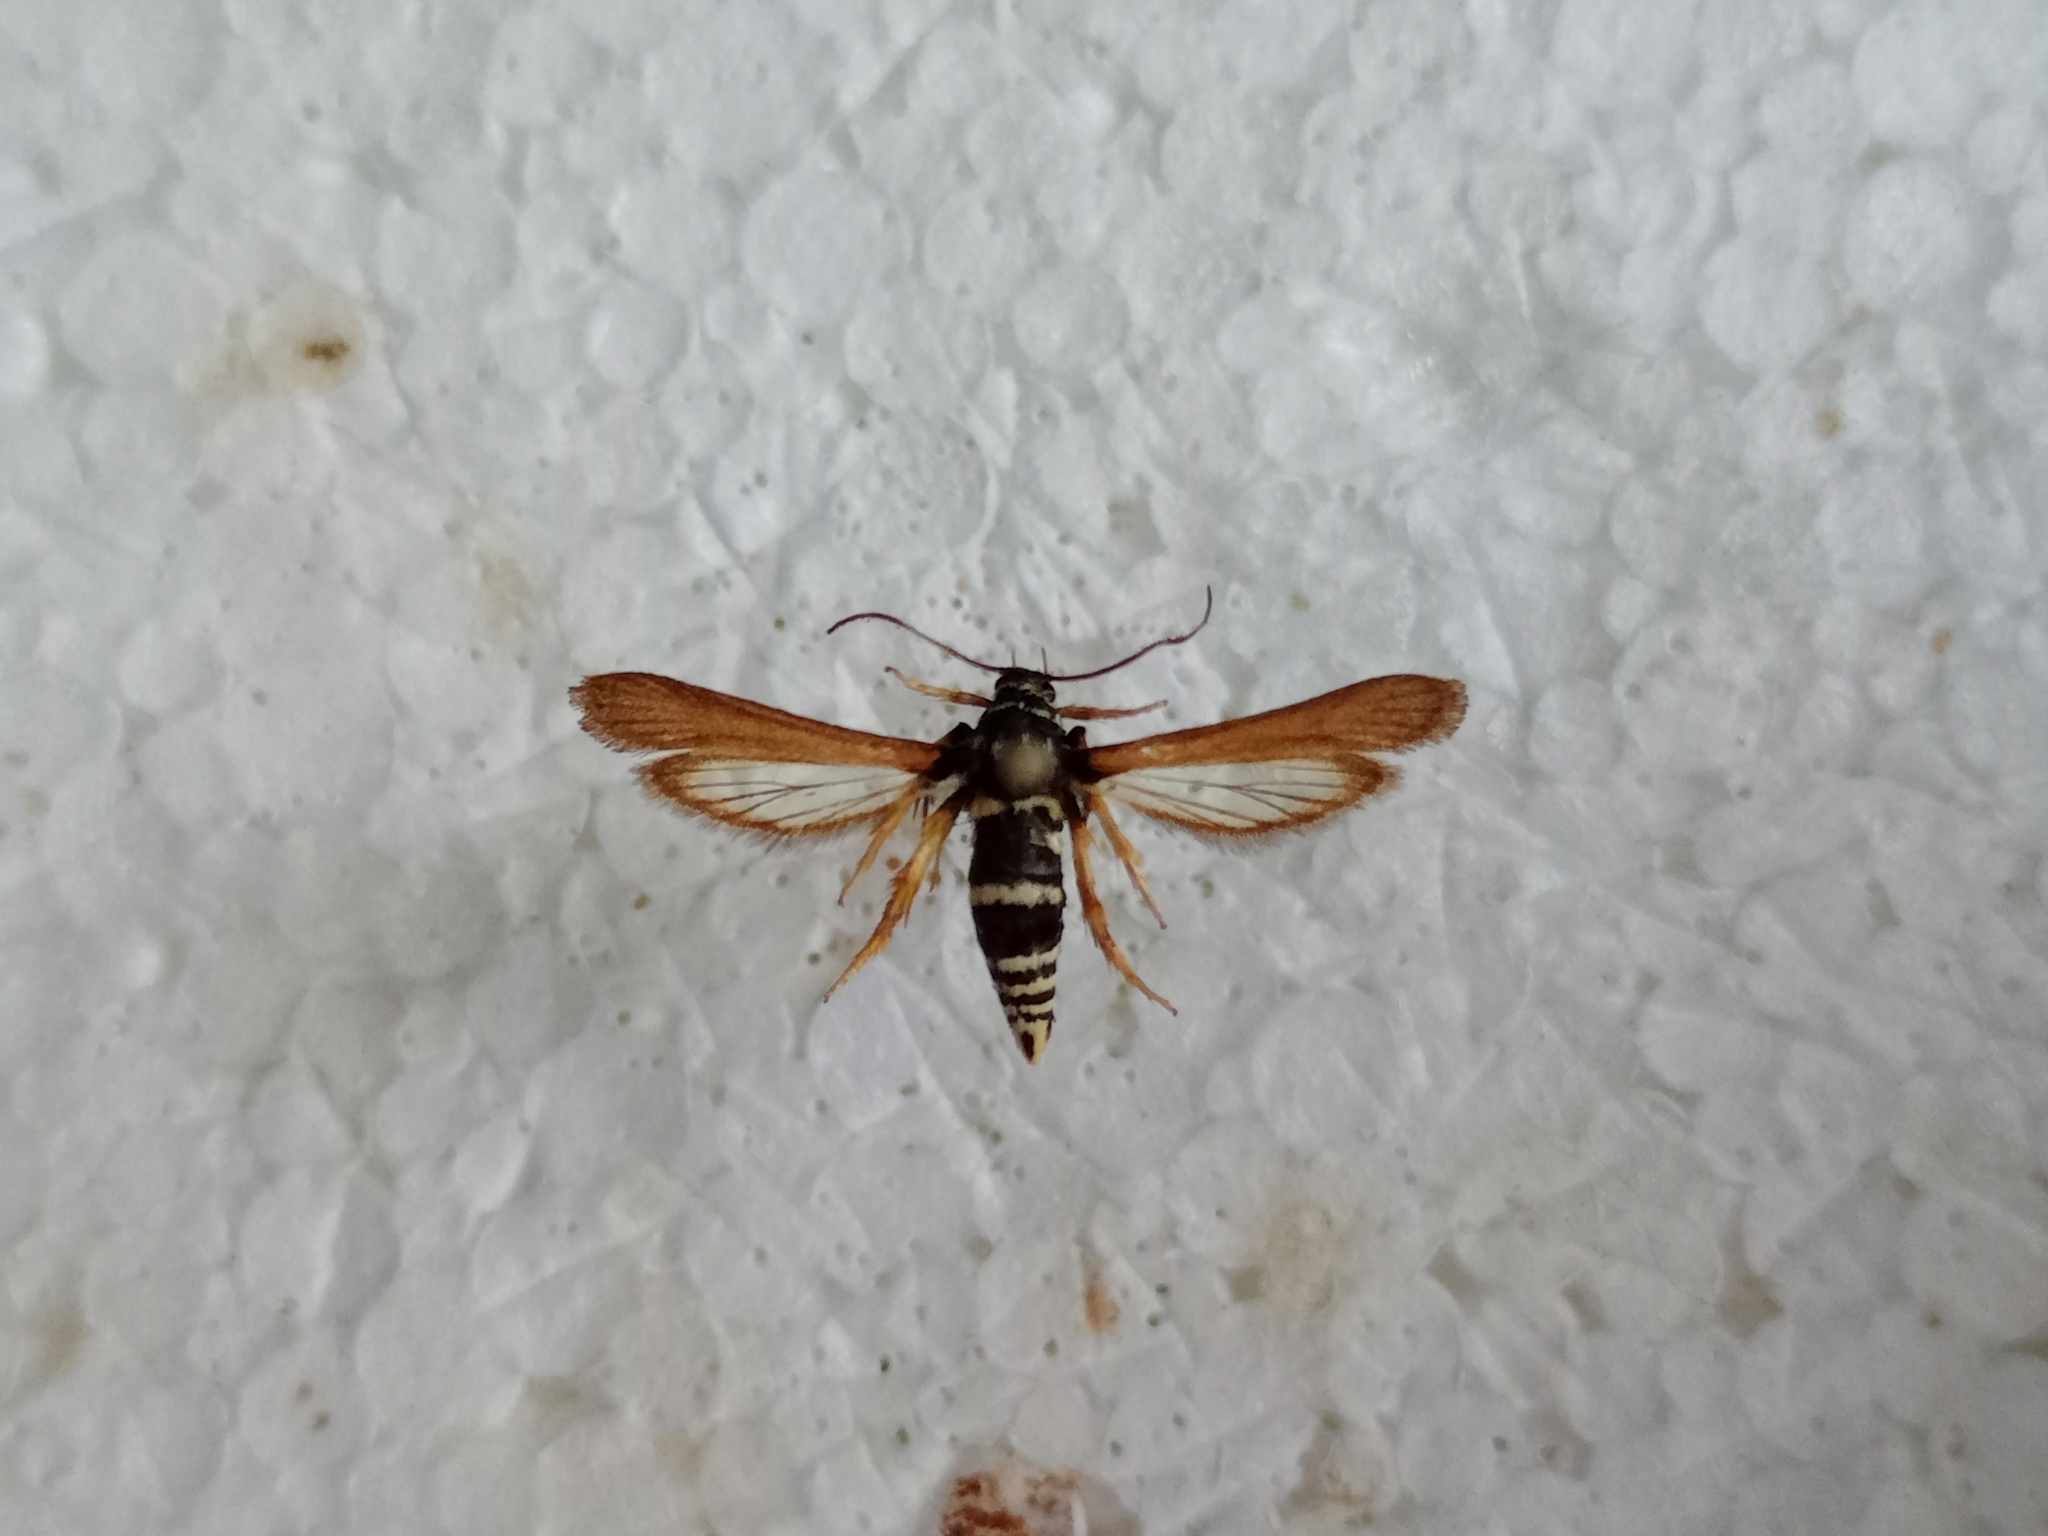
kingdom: Animalia
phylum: Arthropoda
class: Insecta
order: Lepidoptera
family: Sesiidae
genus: Negotinthia
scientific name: Negotinthia hoplisiformis
